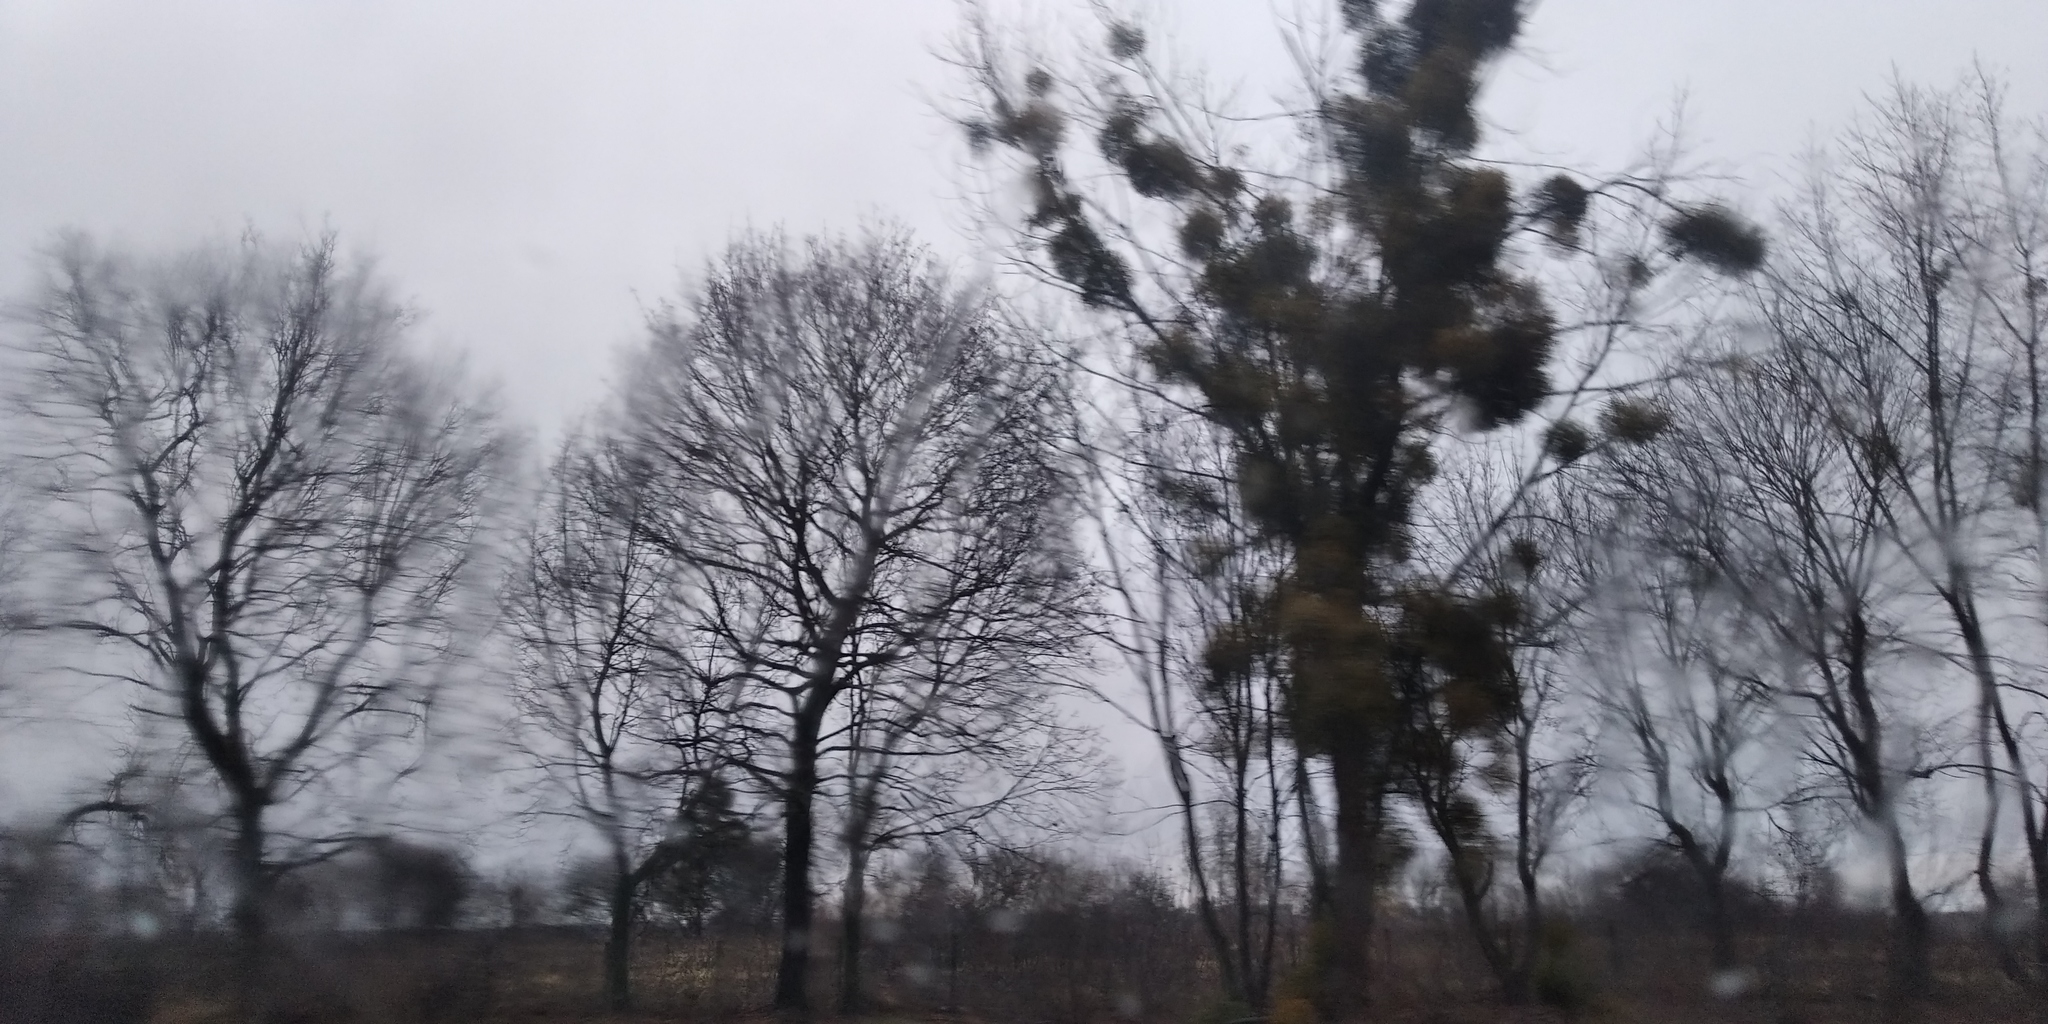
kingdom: Plantae
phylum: Tracheophyta
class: Magnoliopsida
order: Santalales
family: Viscaceae
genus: Viscum
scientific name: Viscum album
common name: Mistletoe
